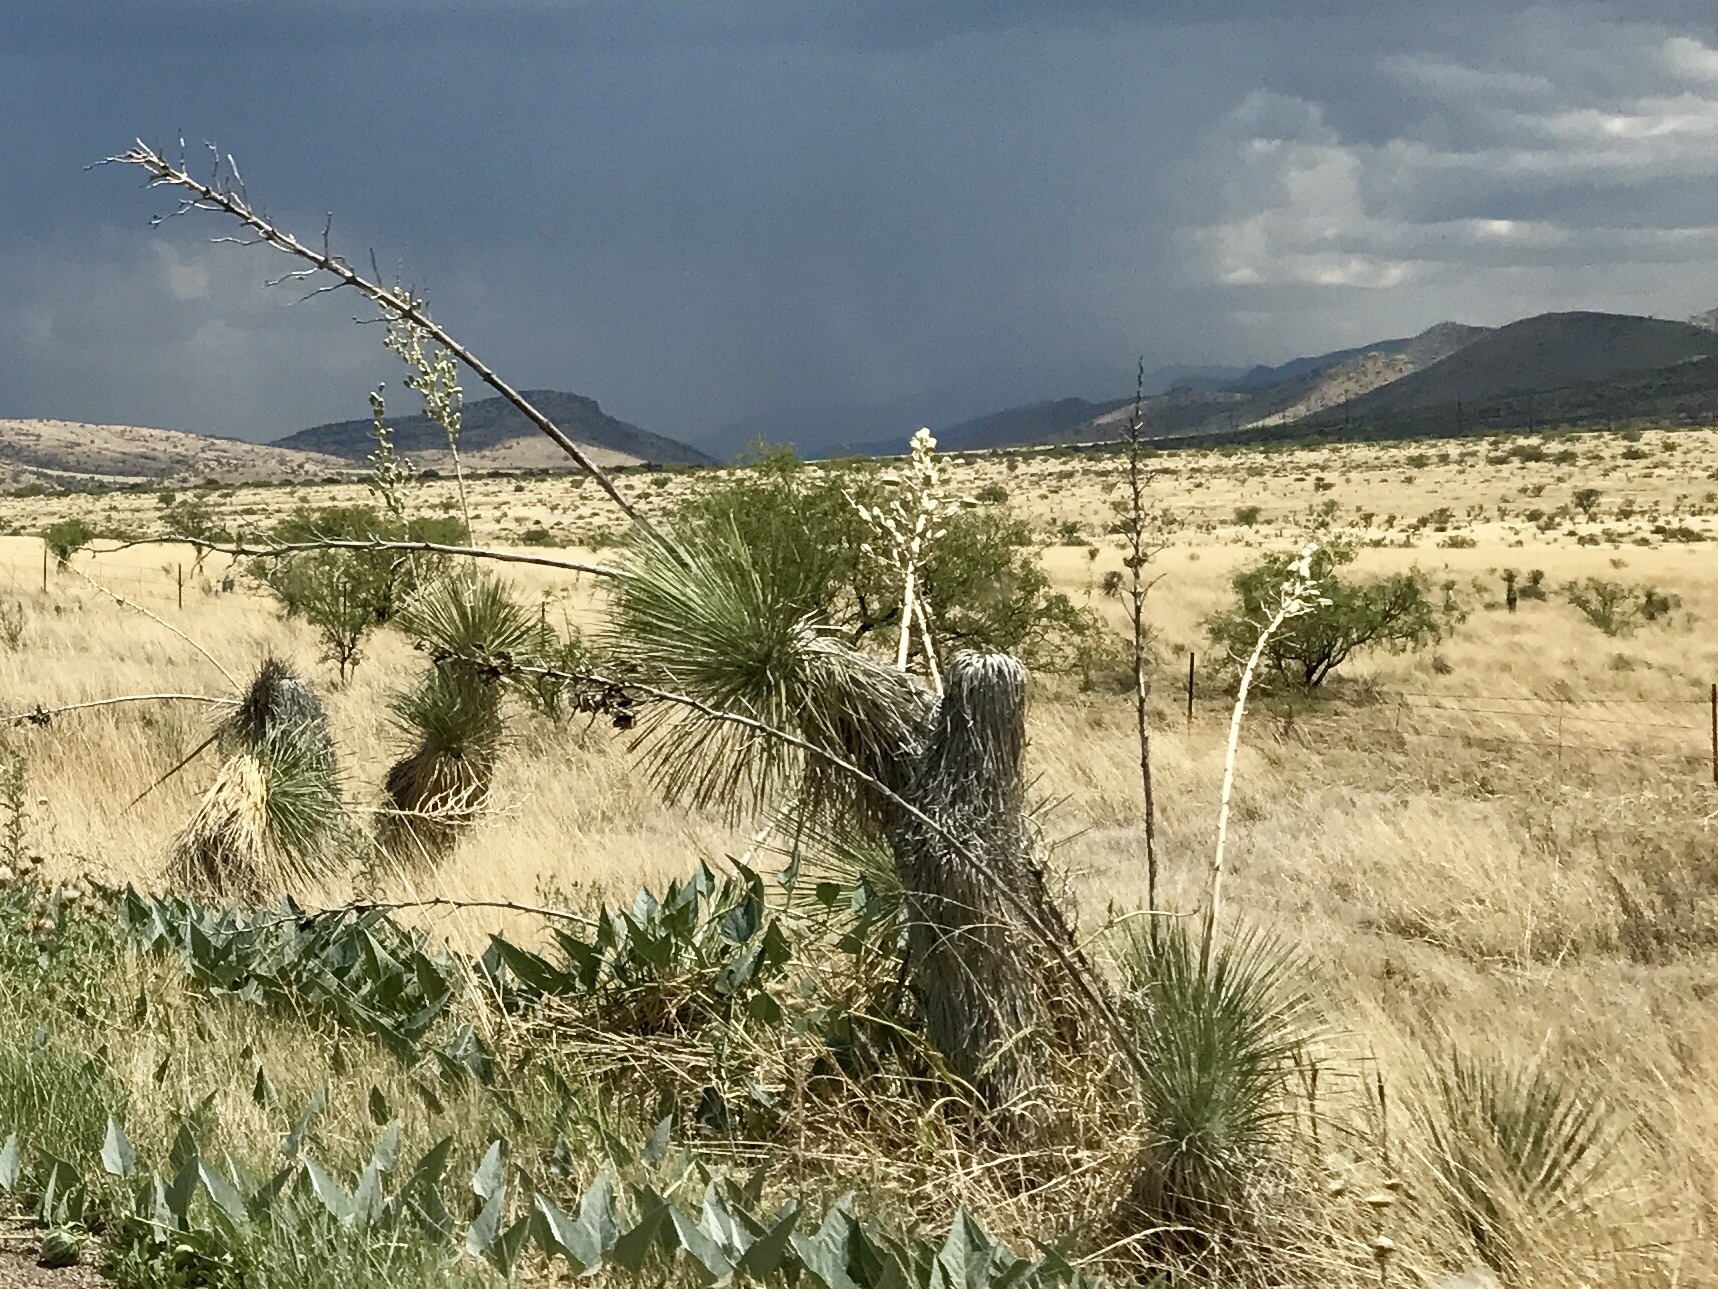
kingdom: Plantae
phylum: Tracheophyta
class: Liliopsida
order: Asparagales
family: Asparagaceae
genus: Yucca
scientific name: Yucca elata
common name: Palmella
